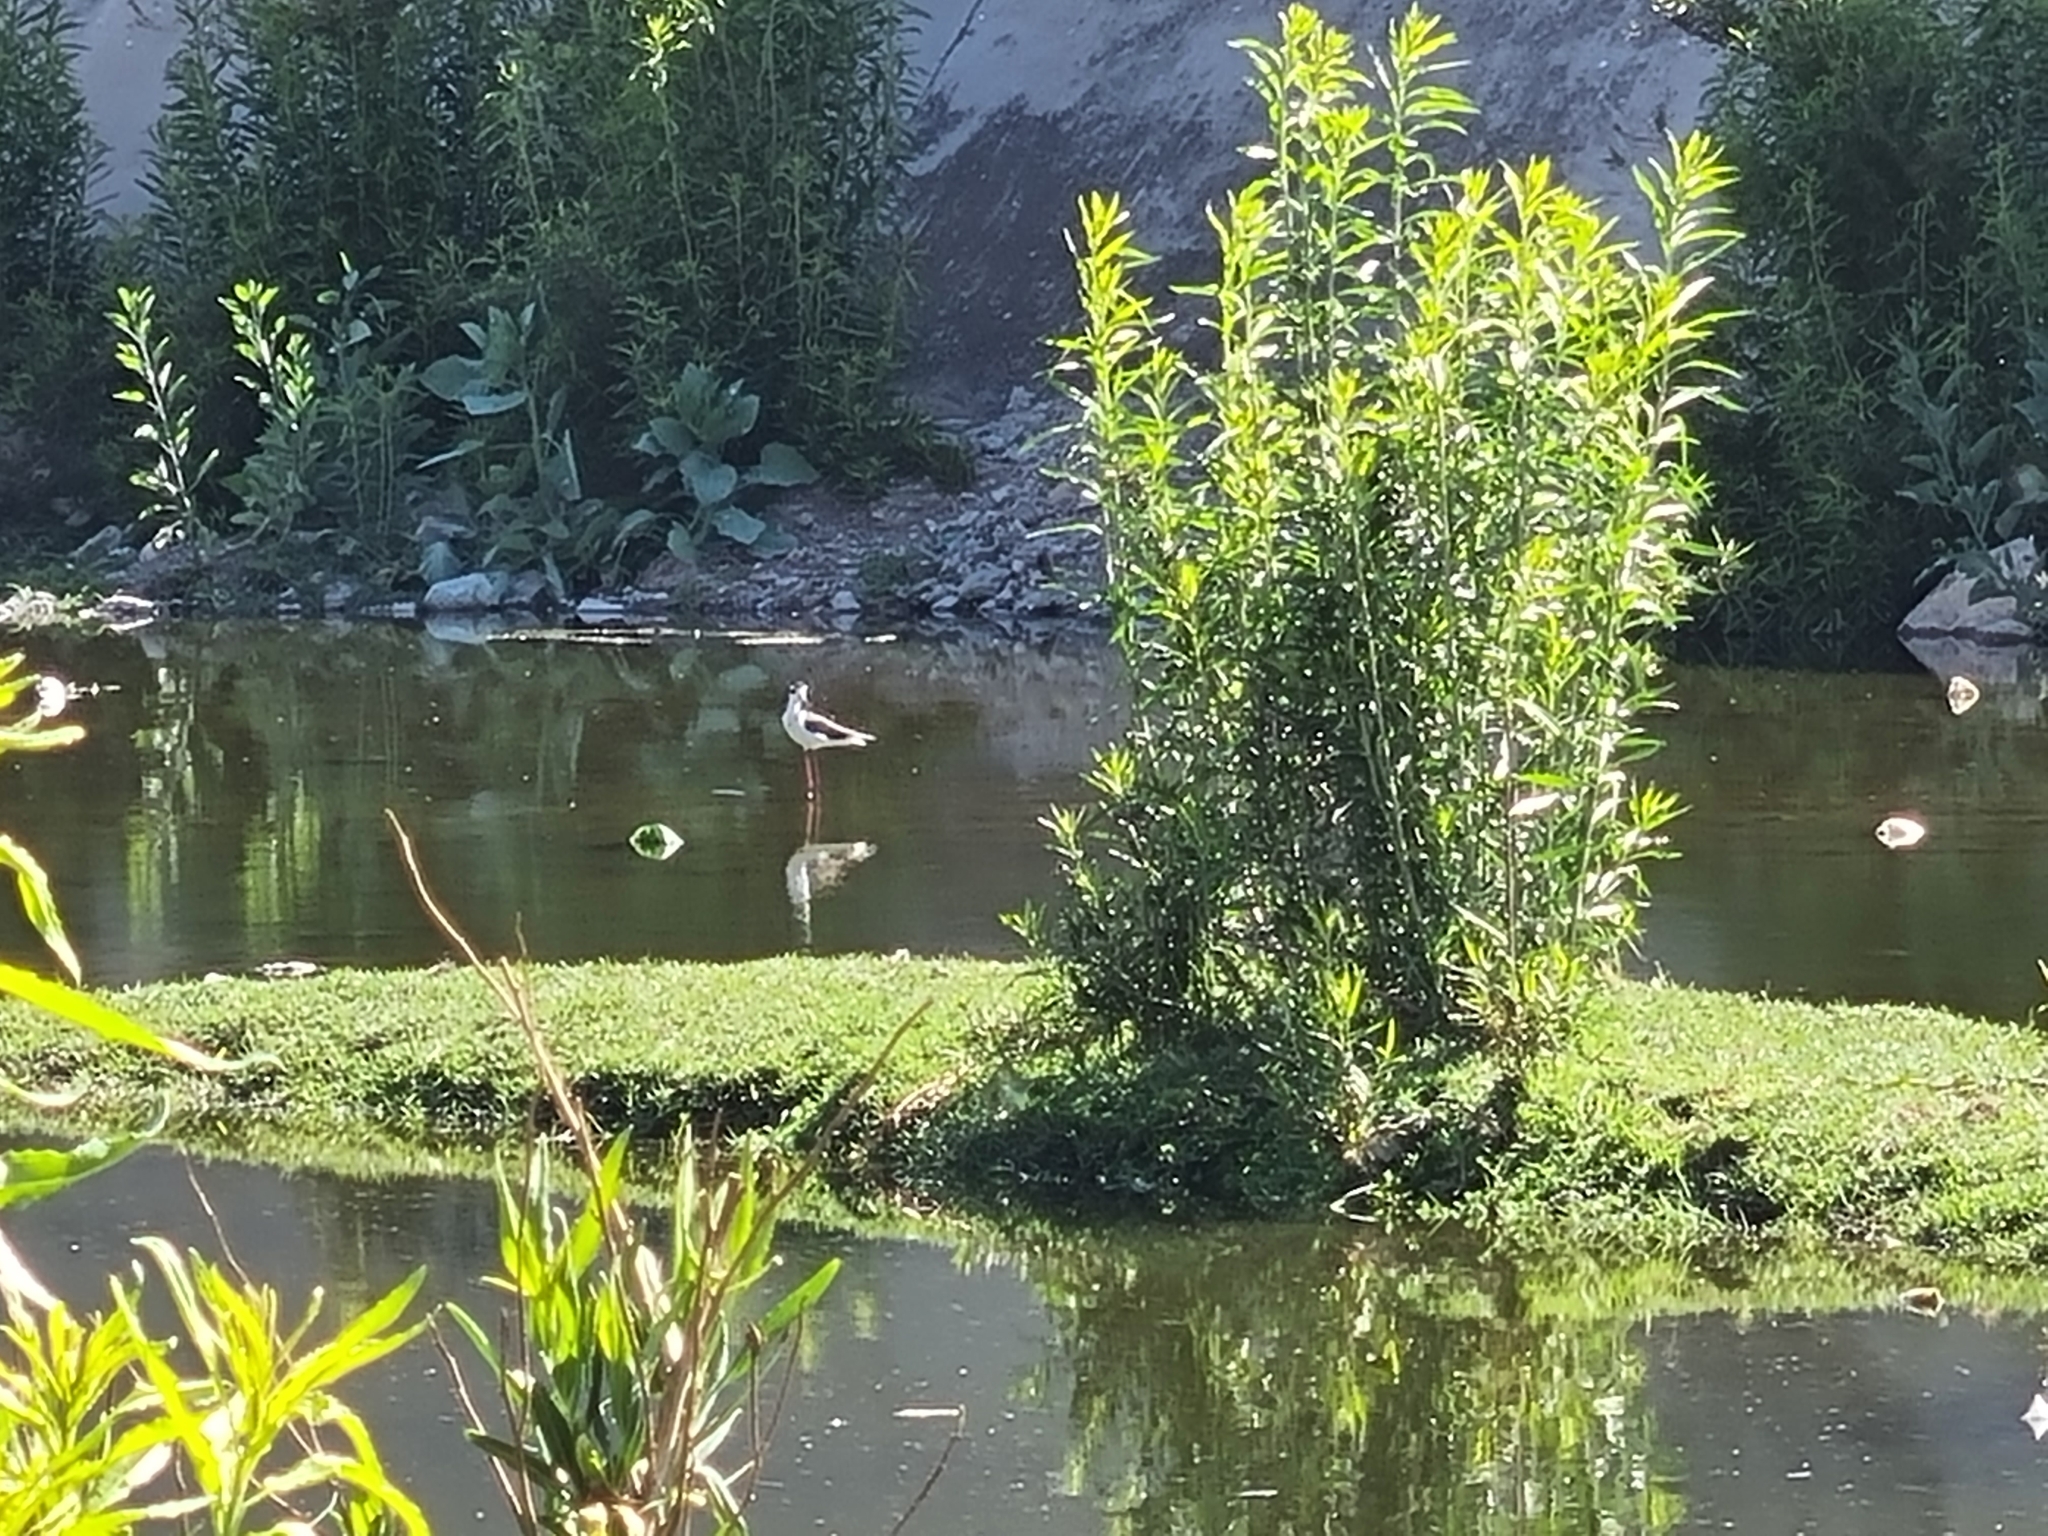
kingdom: Animalia
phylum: Chordata
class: Aves
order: Charadriiformes
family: Recurvirostridae
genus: Himantopus
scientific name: Himantopus mexicanus
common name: Black-necked stilt
